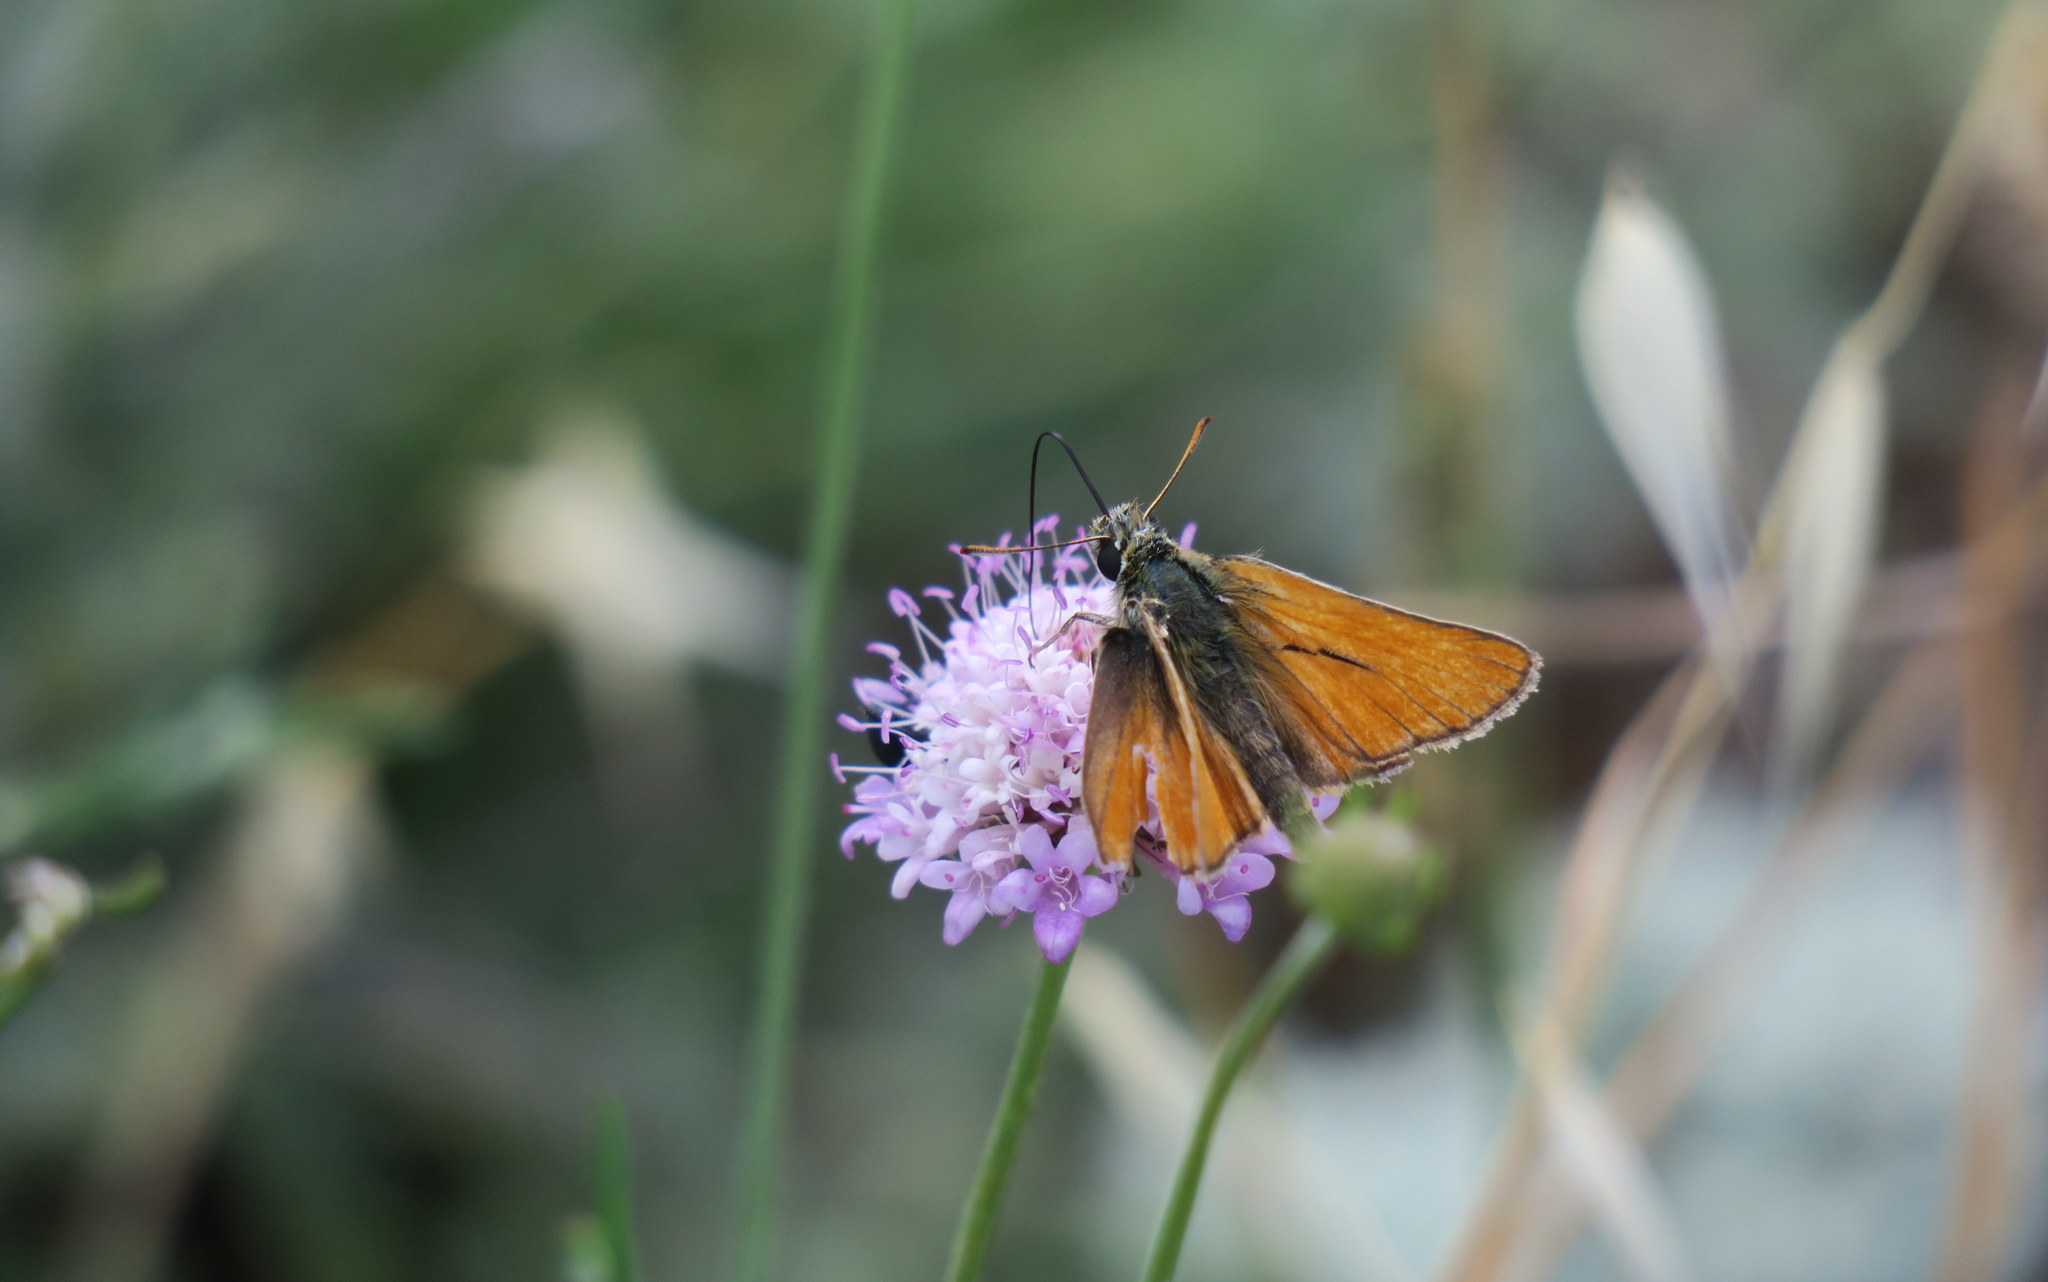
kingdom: Animalia
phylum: Arthropoda
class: Insecta
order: Lepidoptera
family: Hesperiidae
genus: Thymelicus
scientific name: Thymelicus sylvestris
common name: Small skipper
